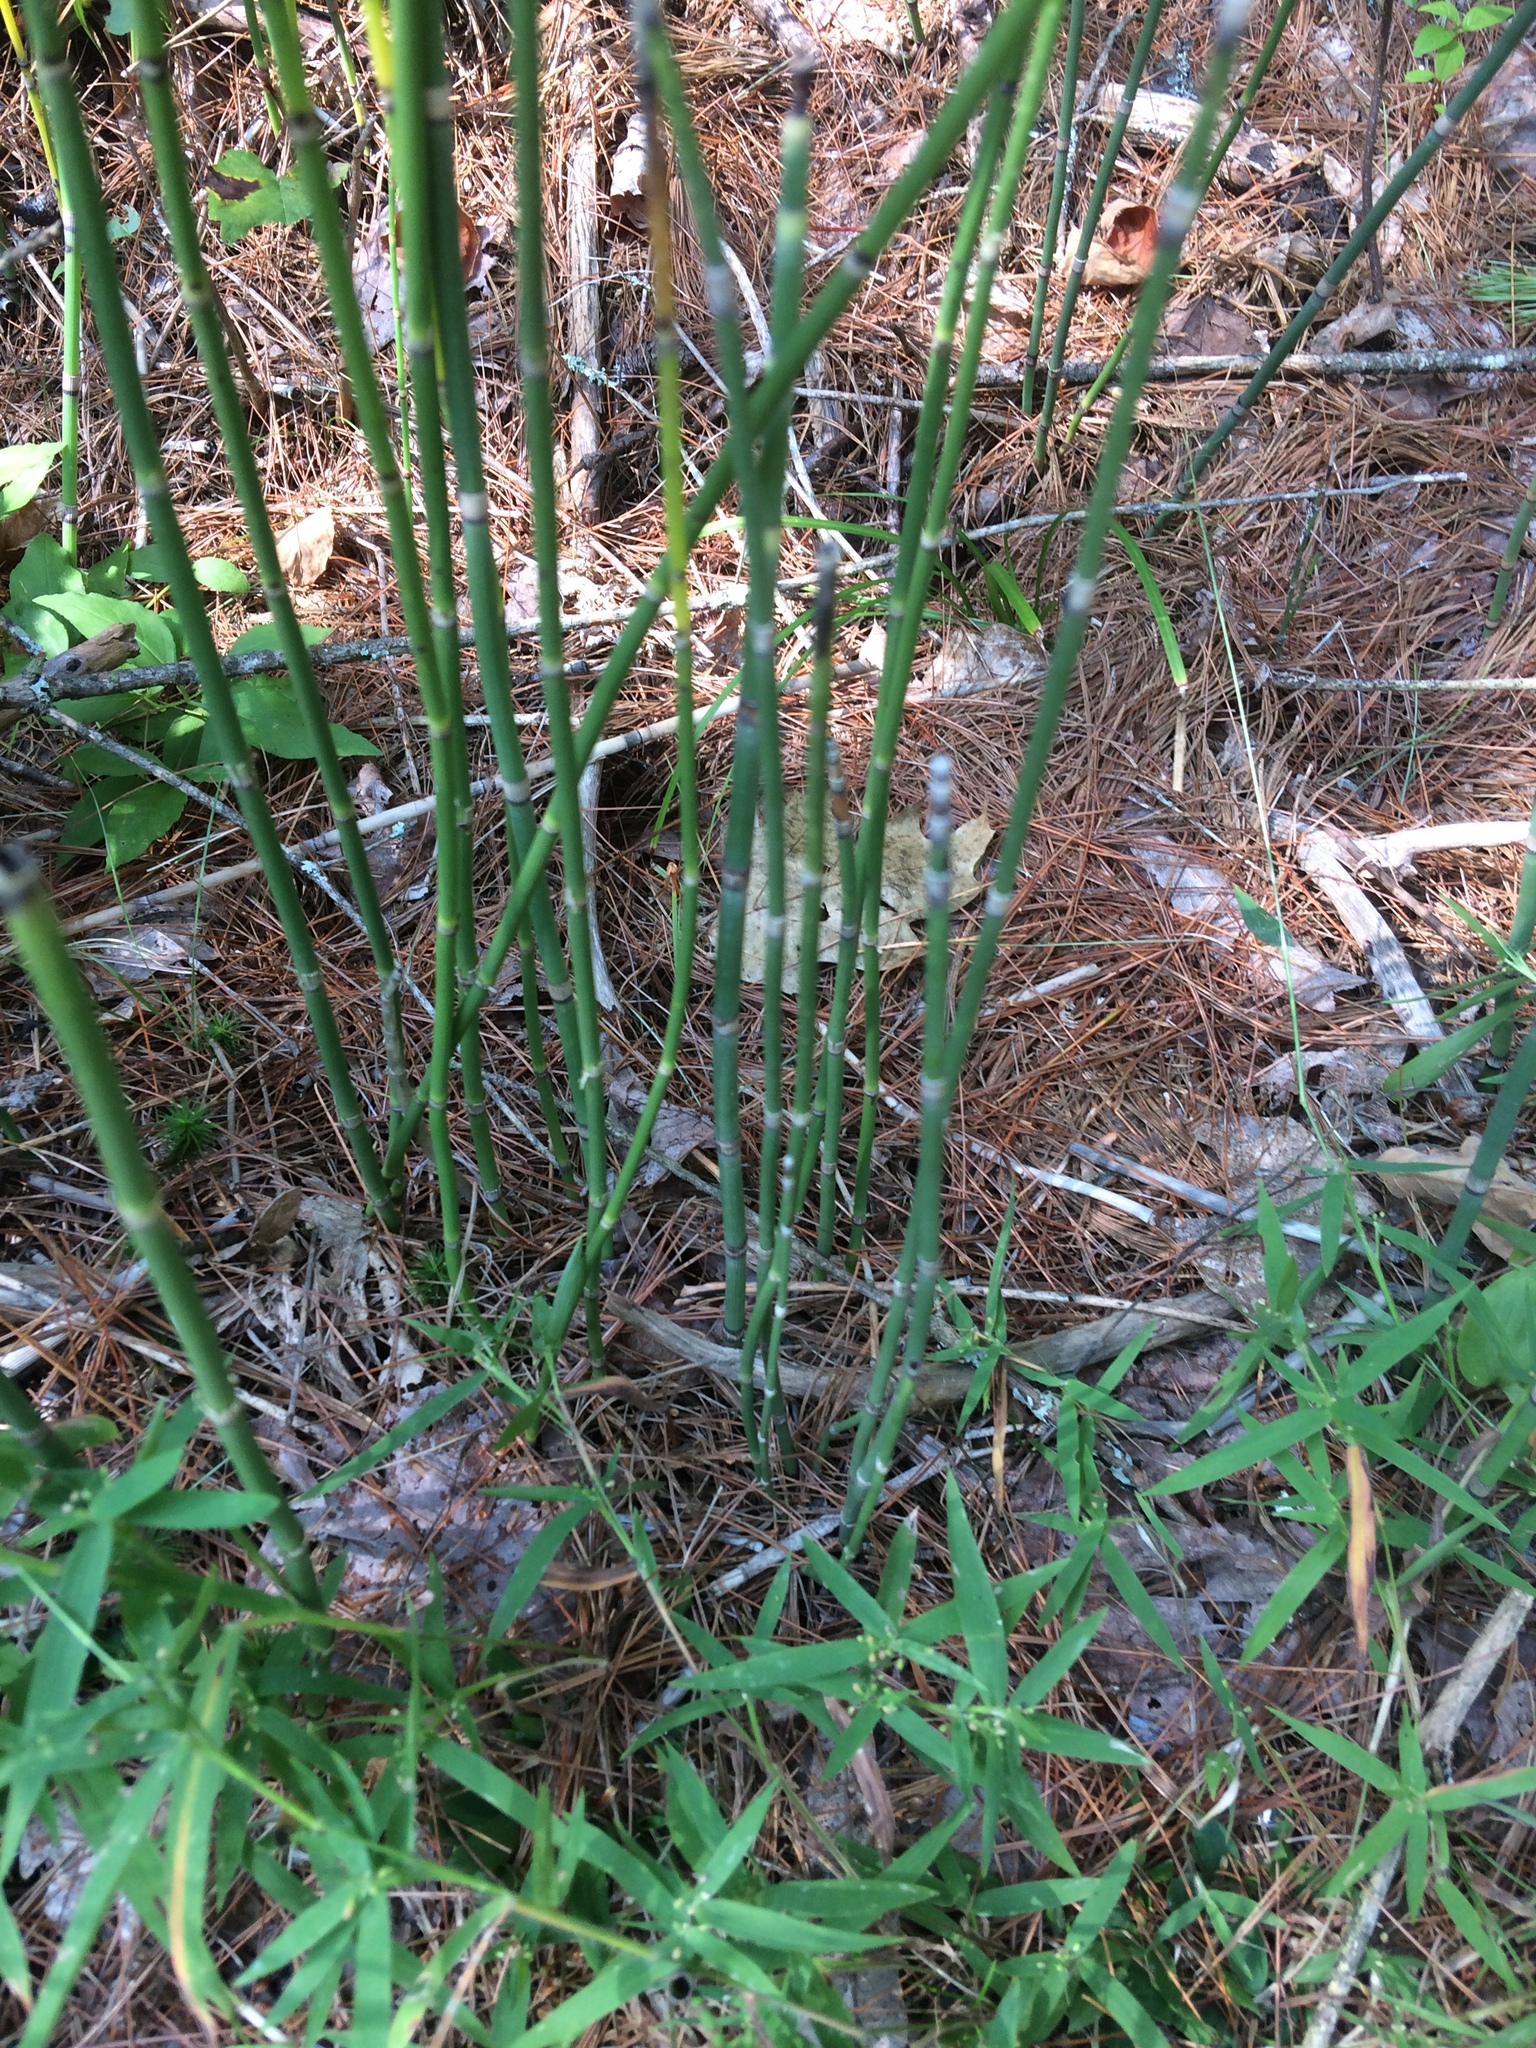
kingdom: Plantae
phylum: Tracheophyta
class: Polypodiopsida
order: Equisetales
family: Equisetaceae
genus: Equisetum
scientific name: Equisetum hyemale
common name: Rough horsetail
